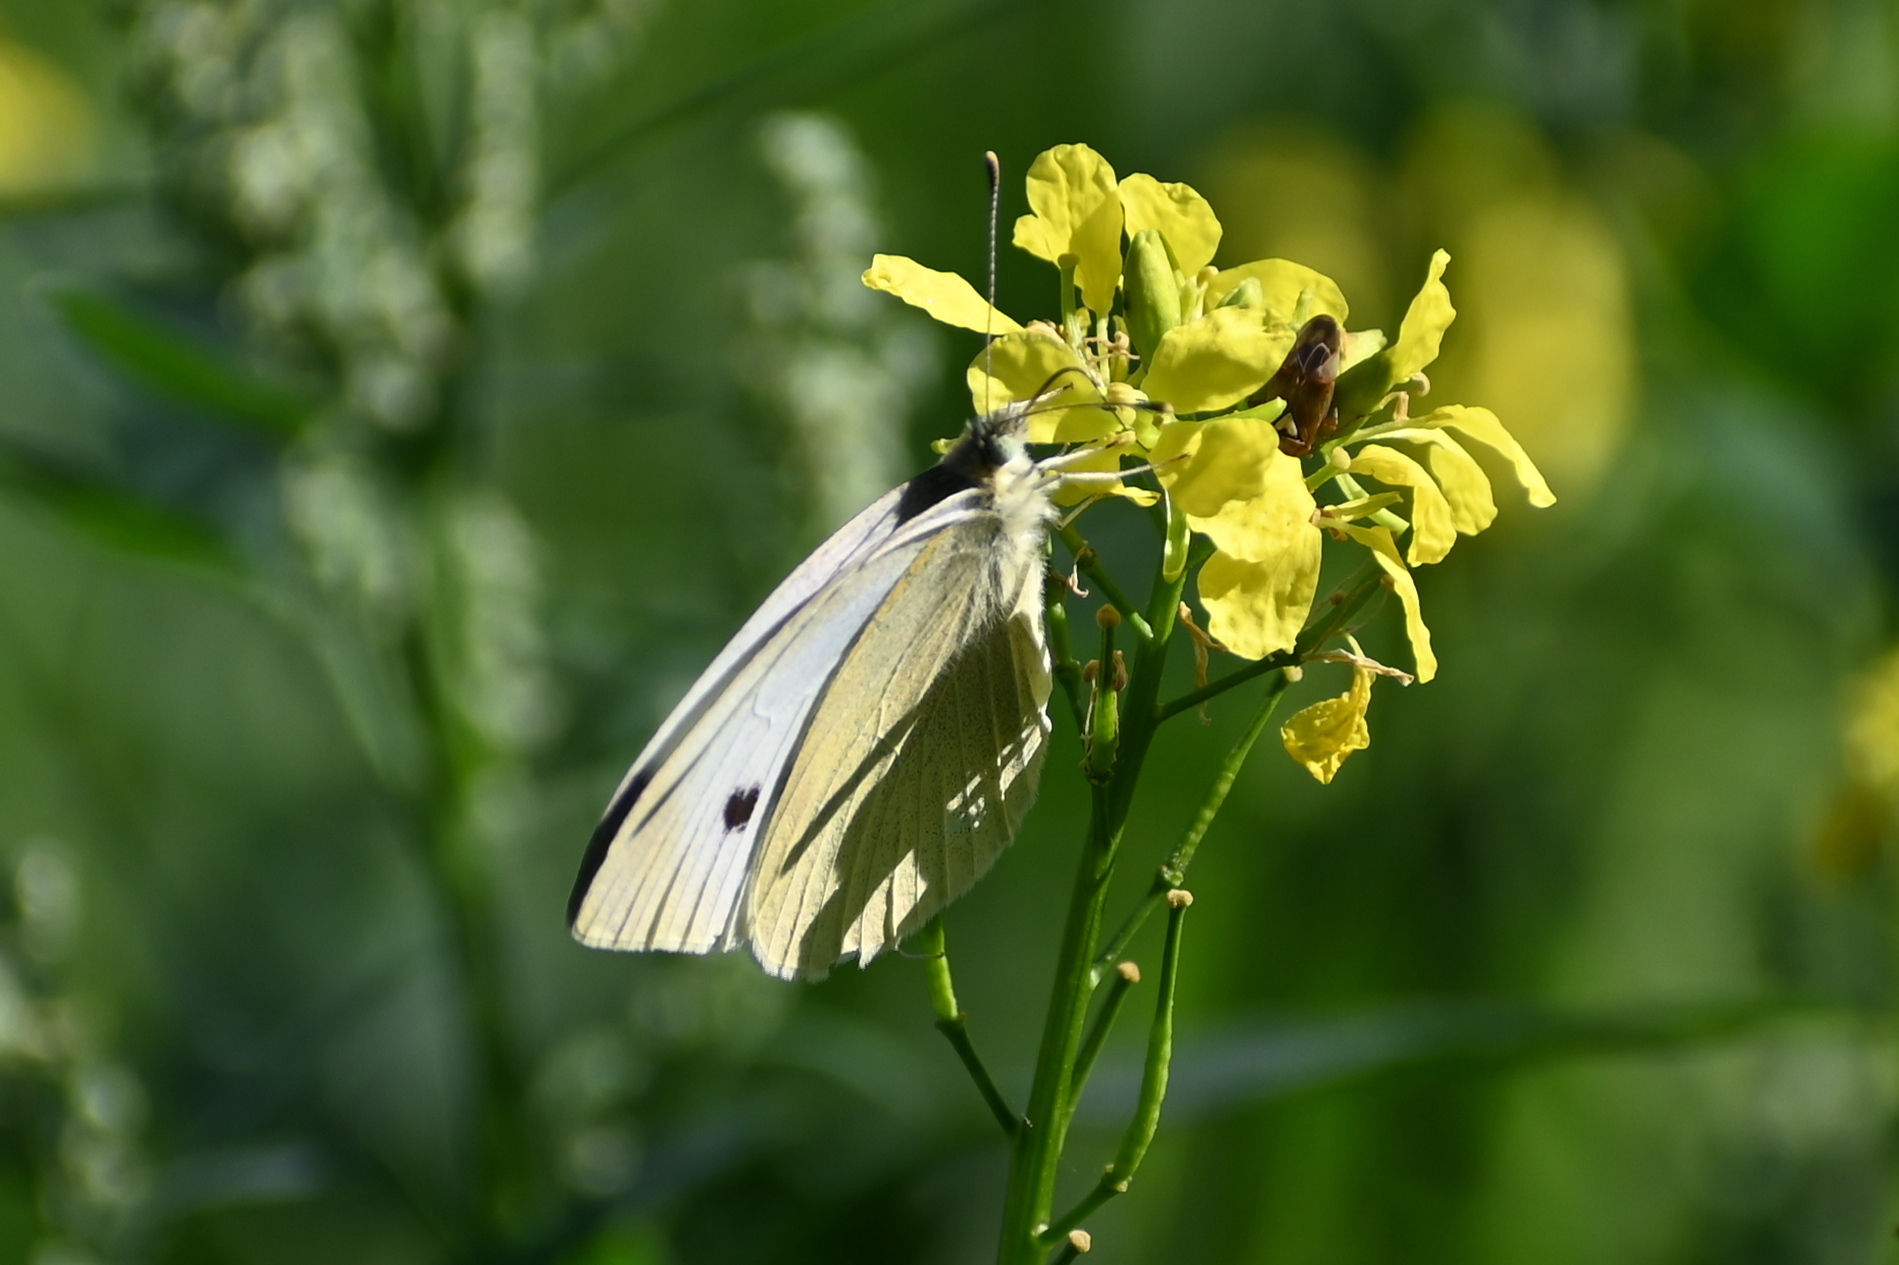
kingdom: Animalia
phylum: Arthropoda
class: Insecta
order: Lepidoptera
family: Pieridae
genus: Pieris
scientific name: Pieris rapae
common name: Small white
